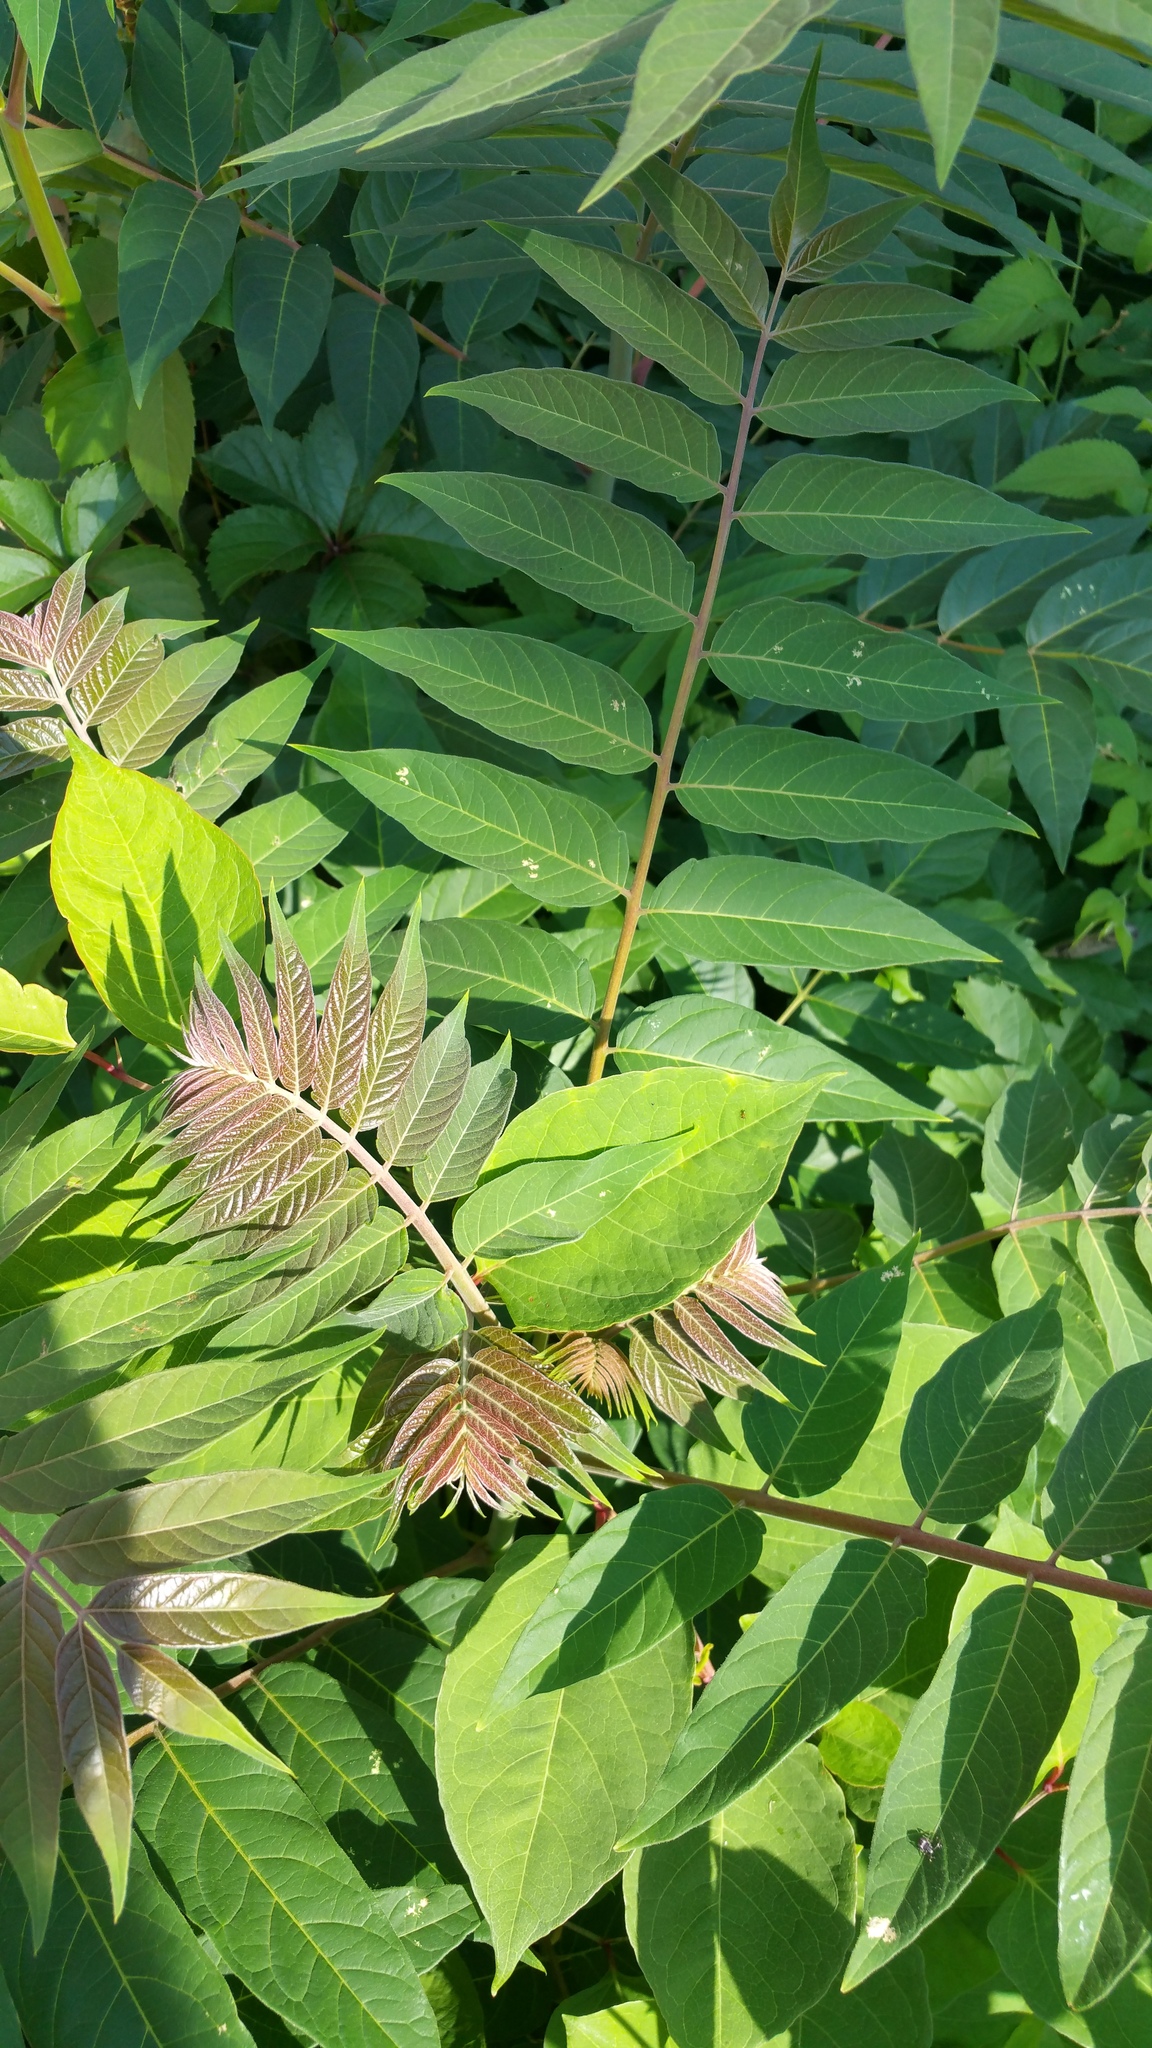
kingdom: Plantae
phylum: Tracheophyta
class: Magnoliopsida
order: Sapindales
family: Simaroubaceae
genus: Ailanthus
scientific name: Ailanthus altissima
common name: Tree-of-heaven
